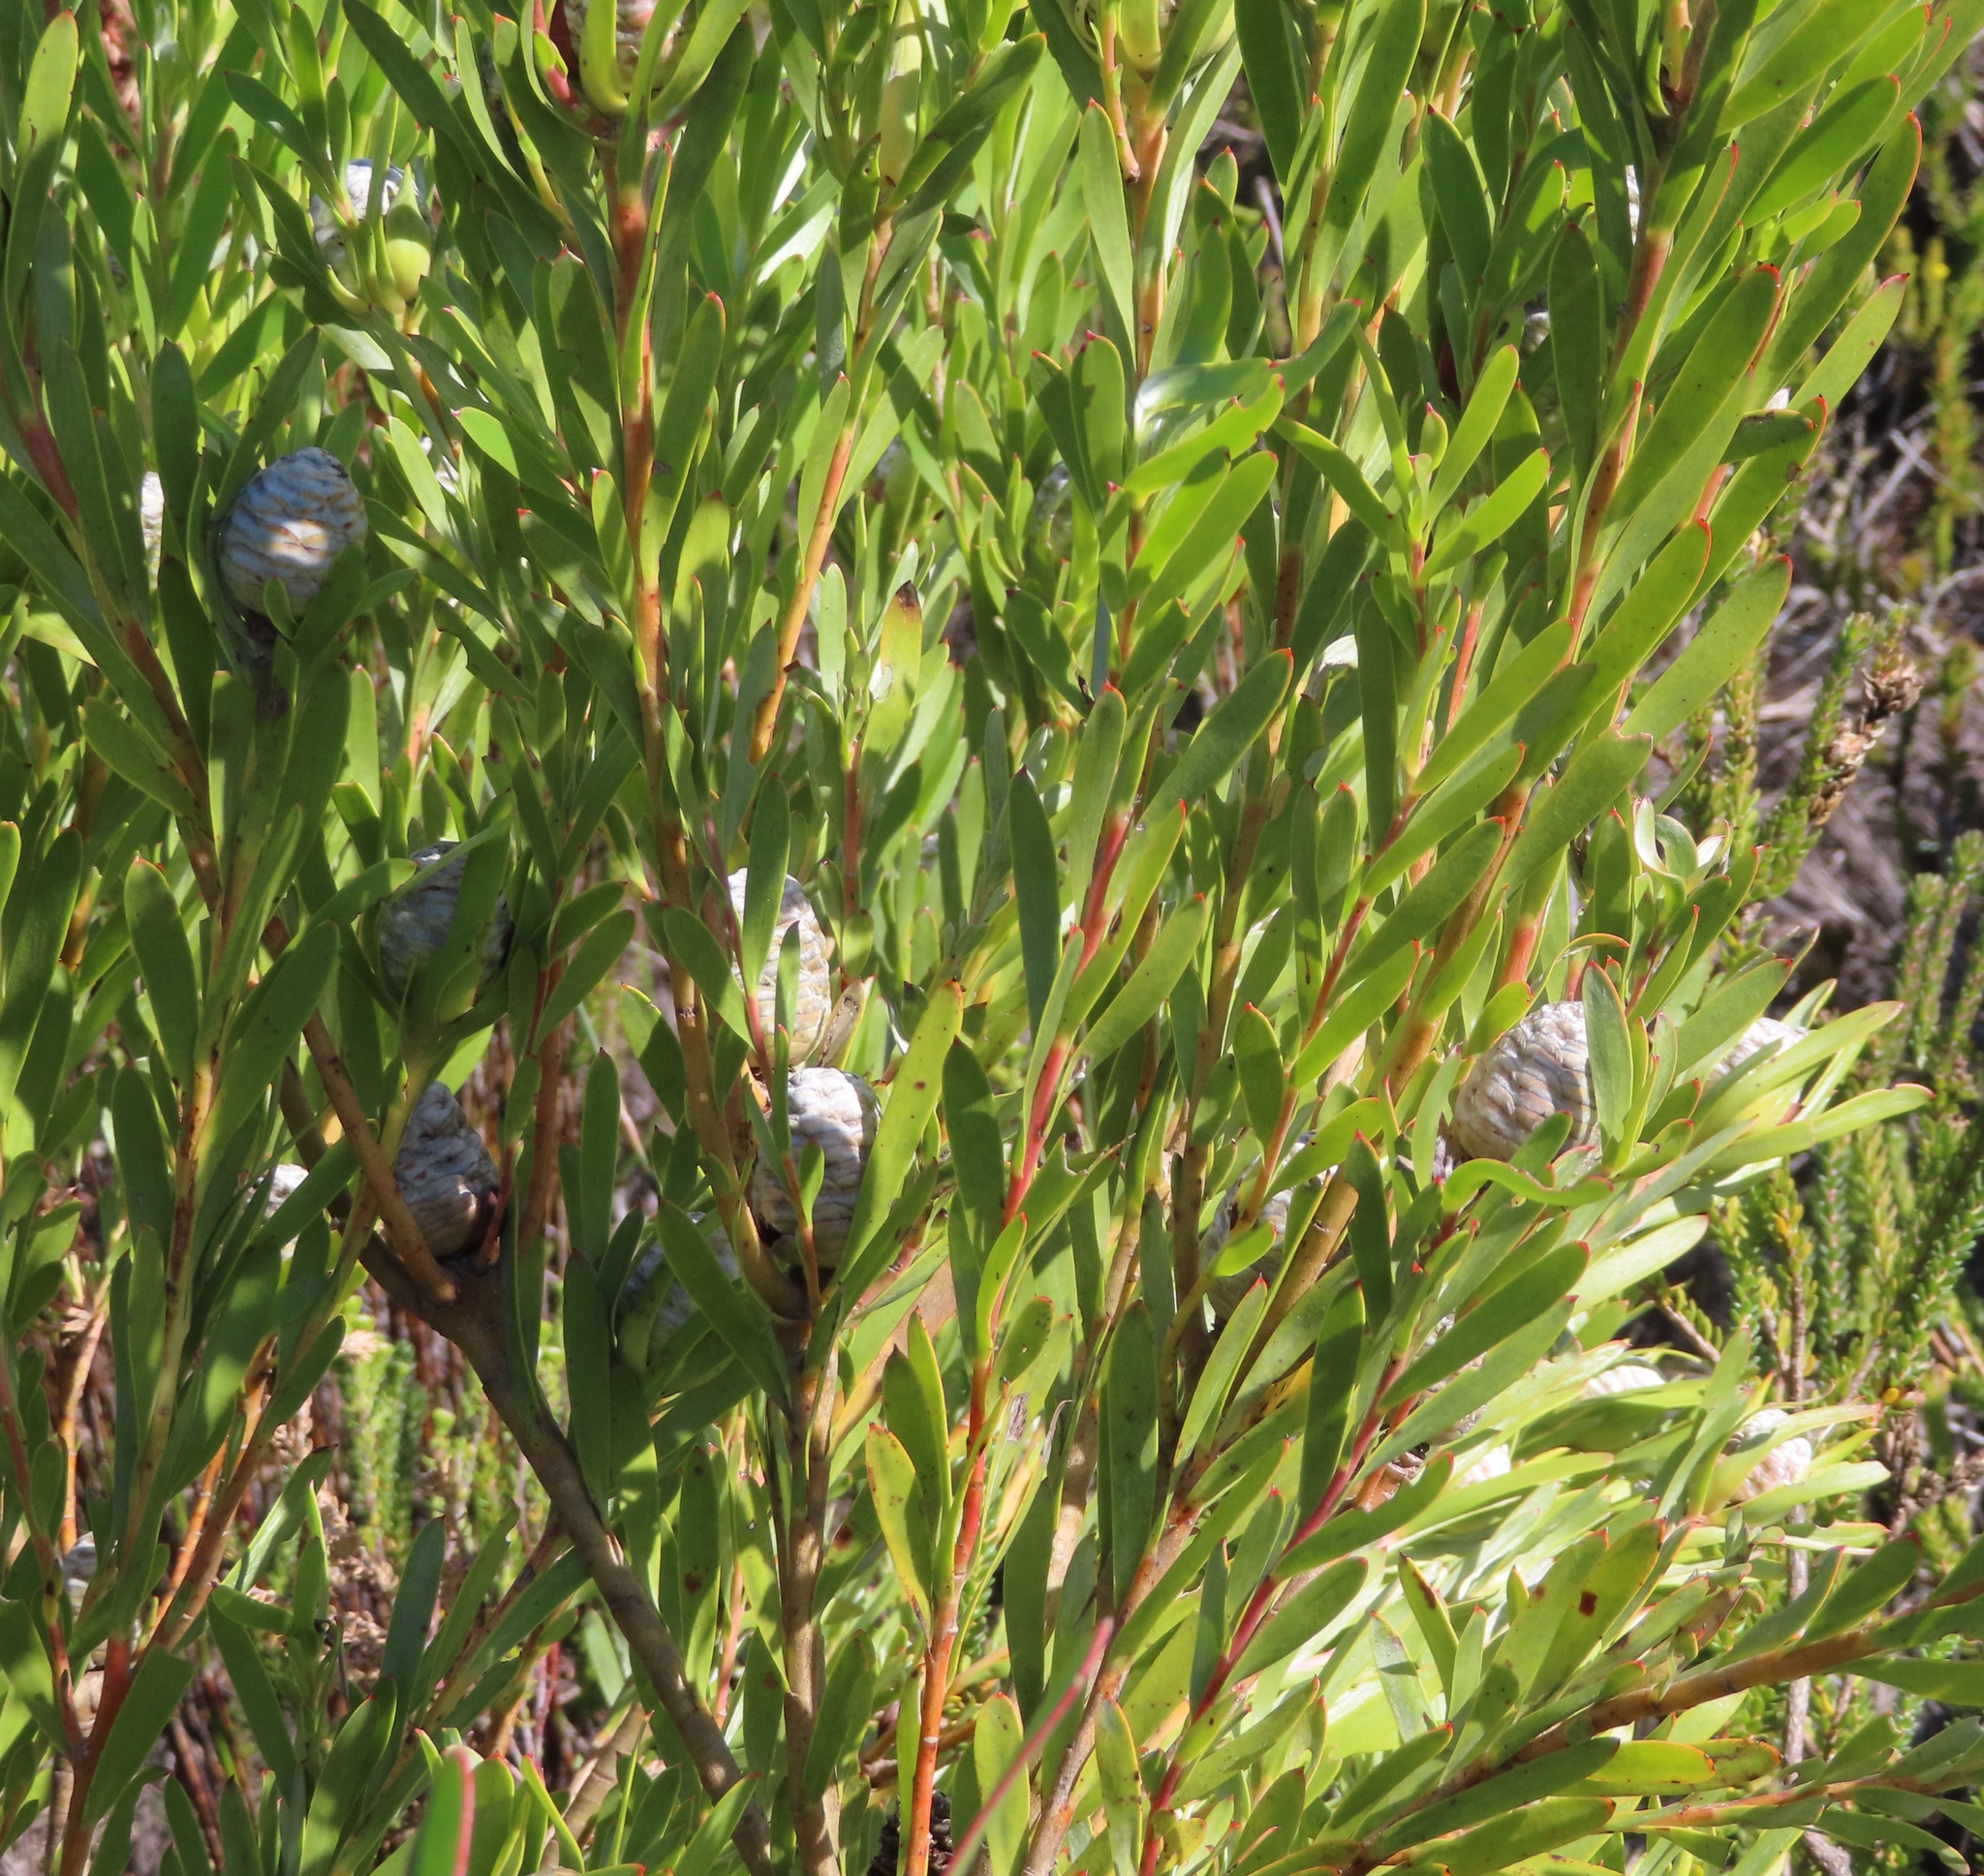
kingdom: Plantae
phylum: Tracheophyta
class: Magnoliopsida
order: Proteales
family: Proteaceae
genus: Leucadendron
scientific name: Leucadendron meridianum
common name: Limestone conebush
